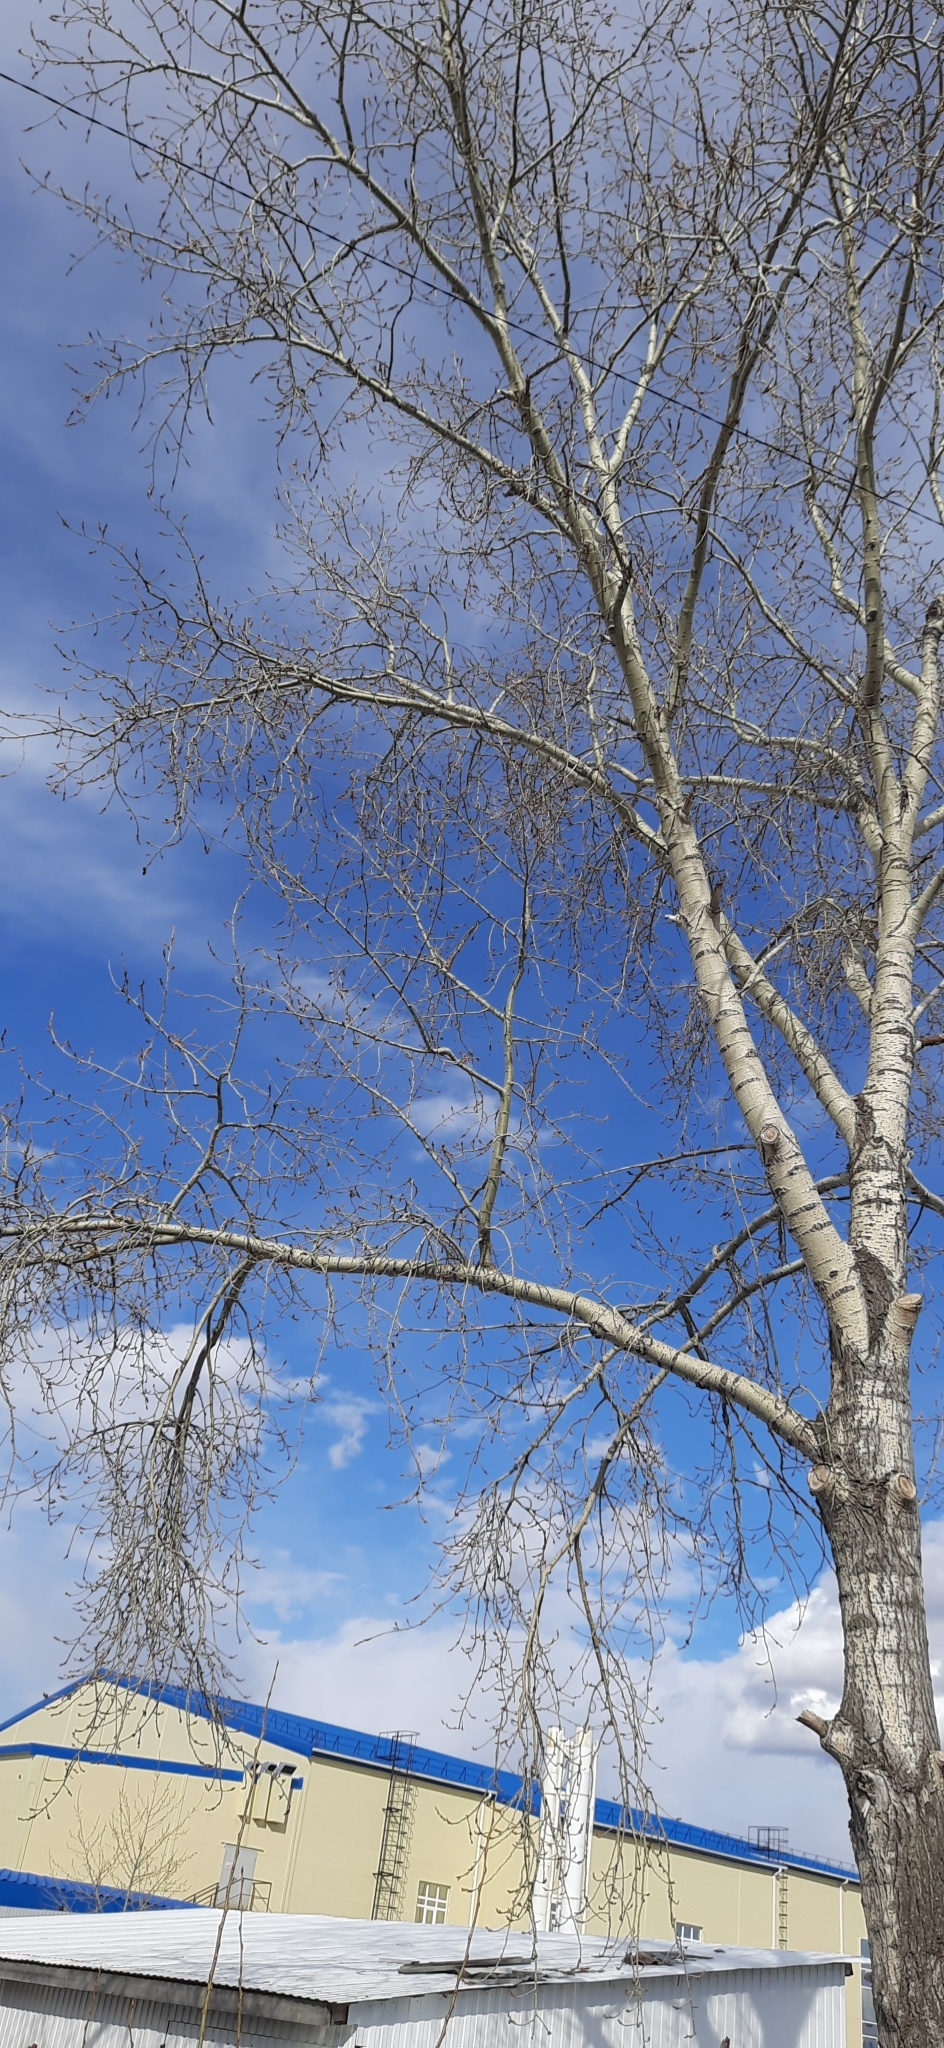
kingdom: Plantae
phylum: Tracheophyta
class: Magnoliopsida
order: Malpighiales
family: Salicaceae
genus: Populus
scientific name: Populus sibirica
